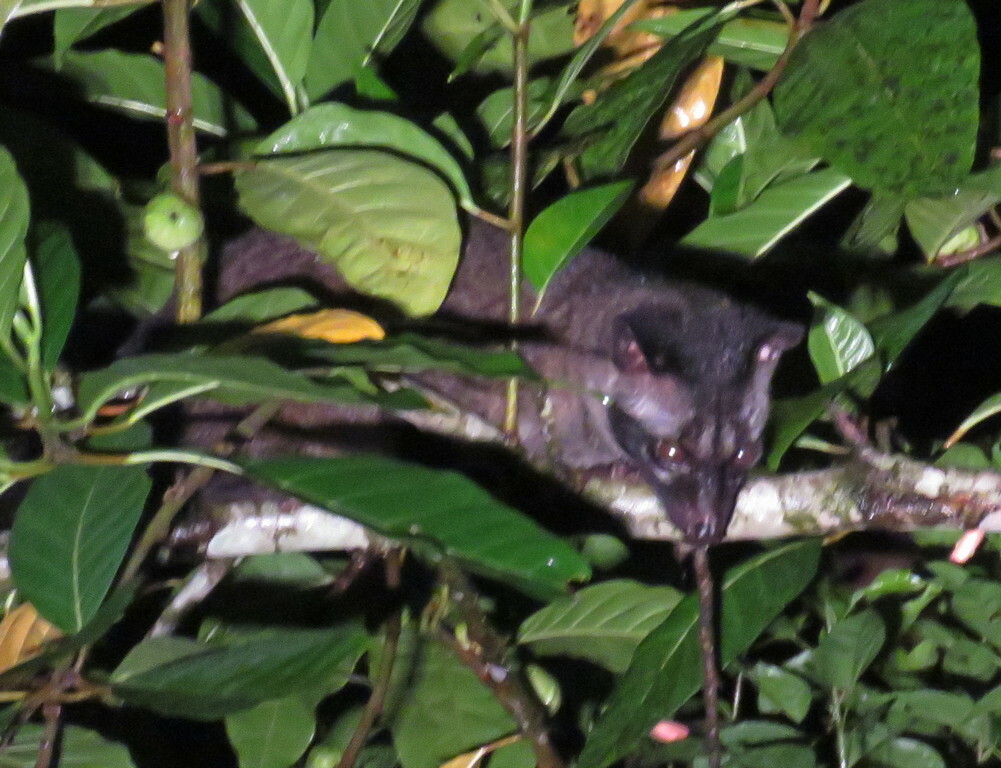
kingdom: Animalia
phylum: Chordata
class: Mammalia
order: Carnivora
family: Viverridae
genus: Paradoxurus
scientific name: Paradoxurus hermaphroditus
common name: Common palm civet
